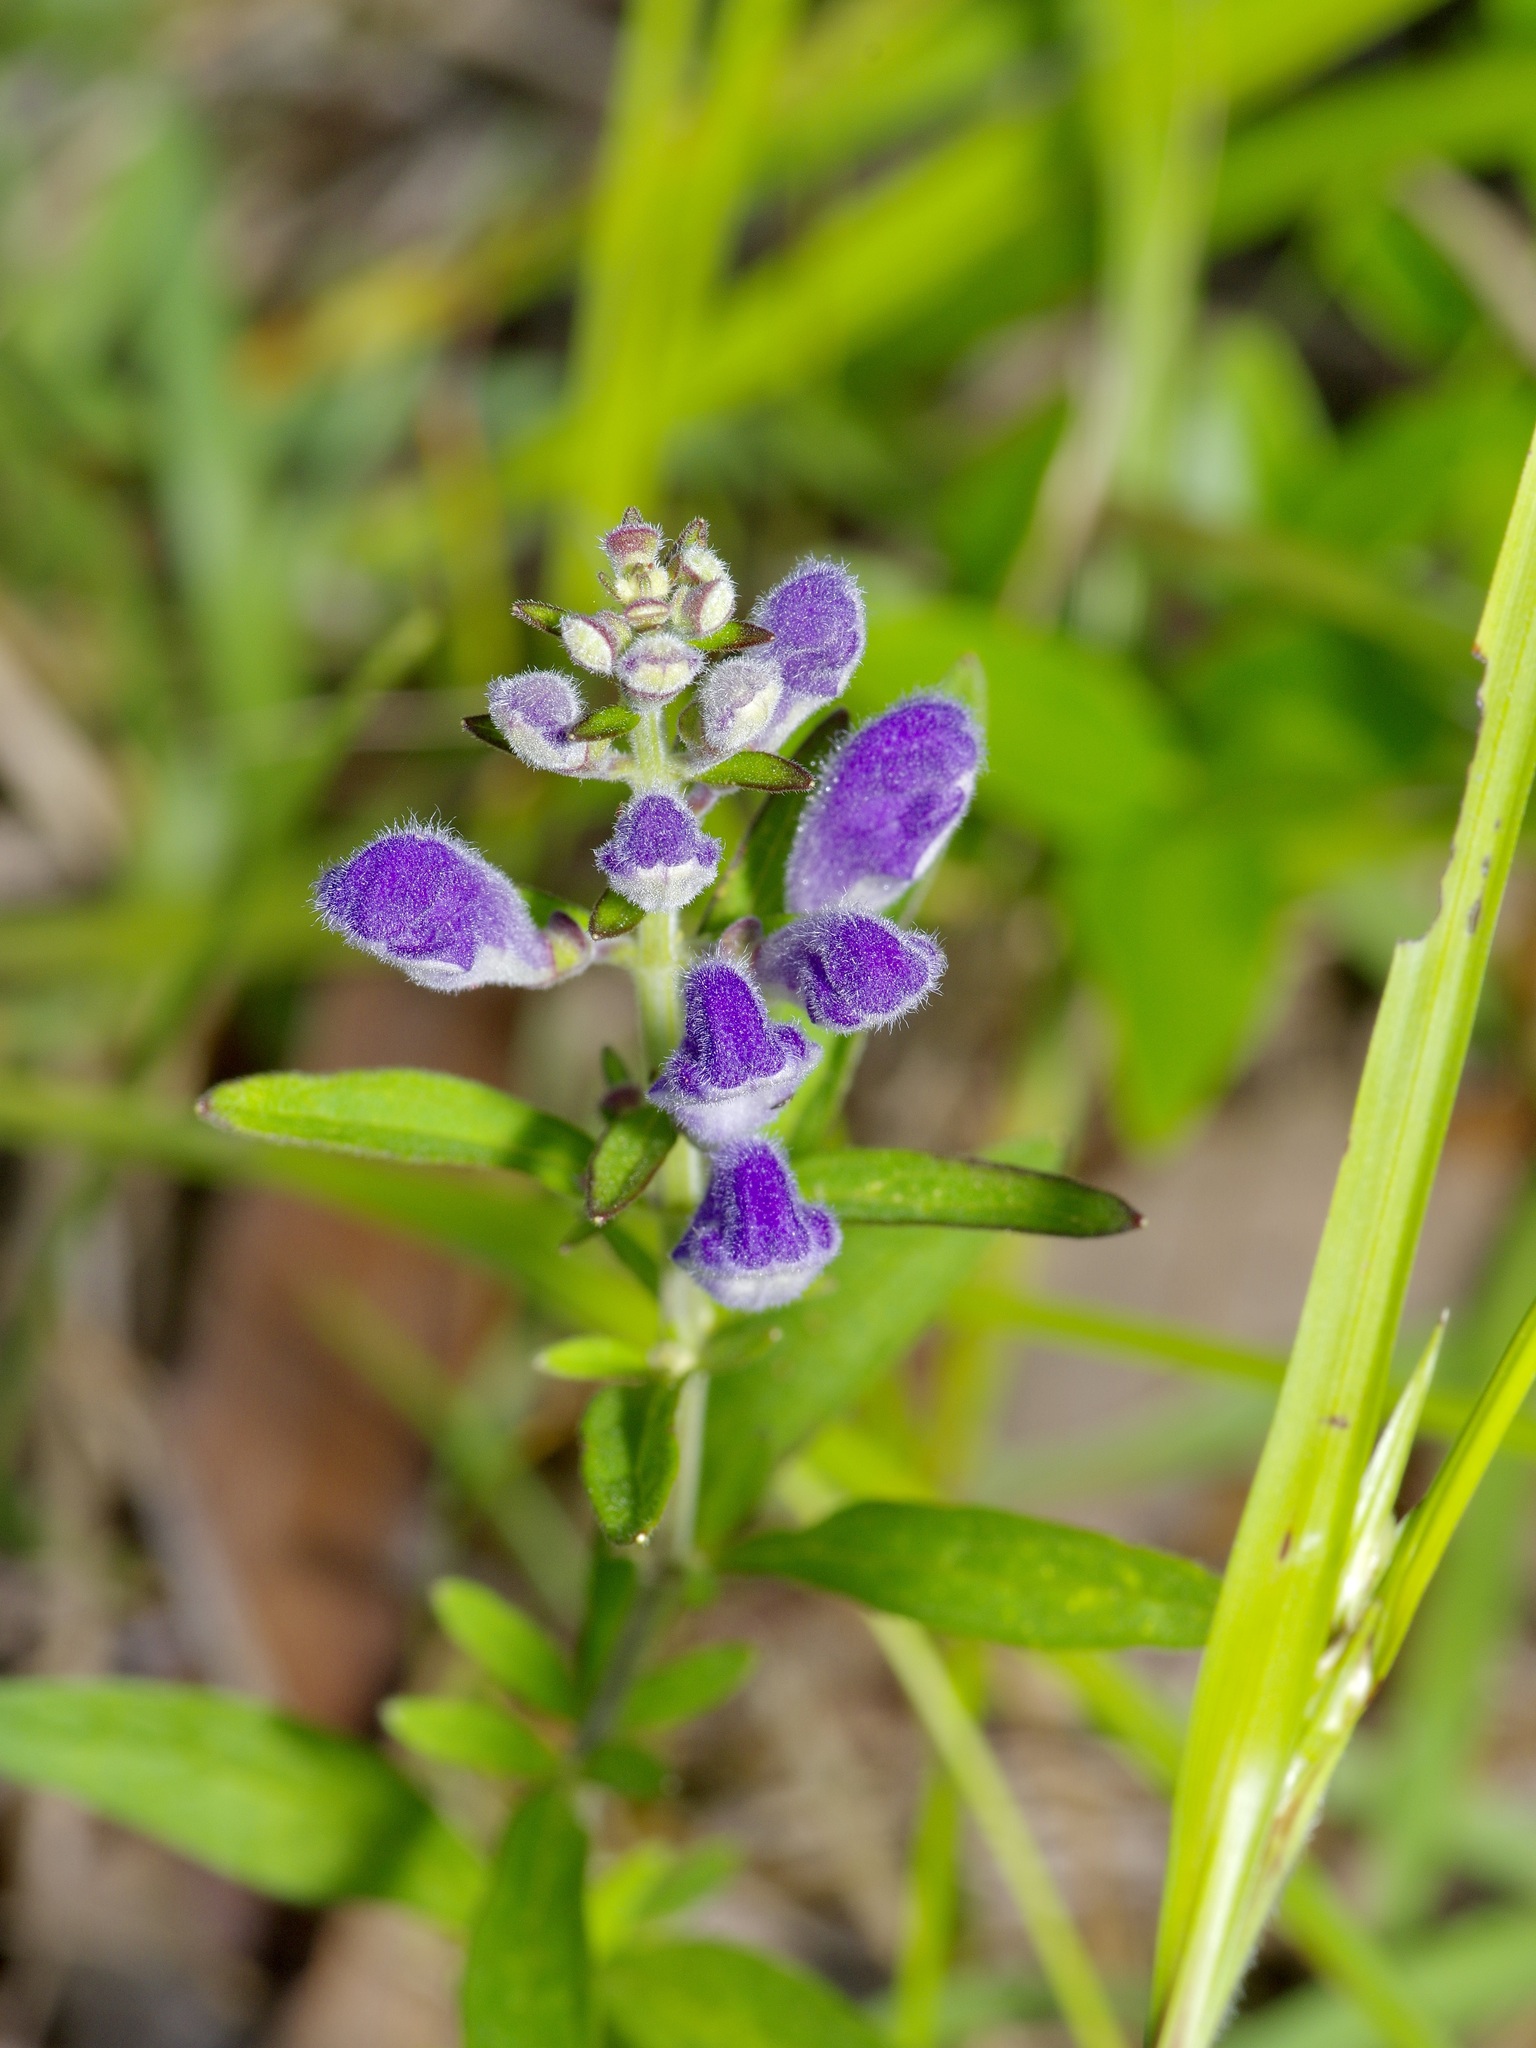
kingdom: Plantae
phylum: Tracheophyta
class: Magnoliopsida
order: Lamiales
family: Lamiaceae
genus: Scutellaria
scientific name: Scutellaria integrifolia
